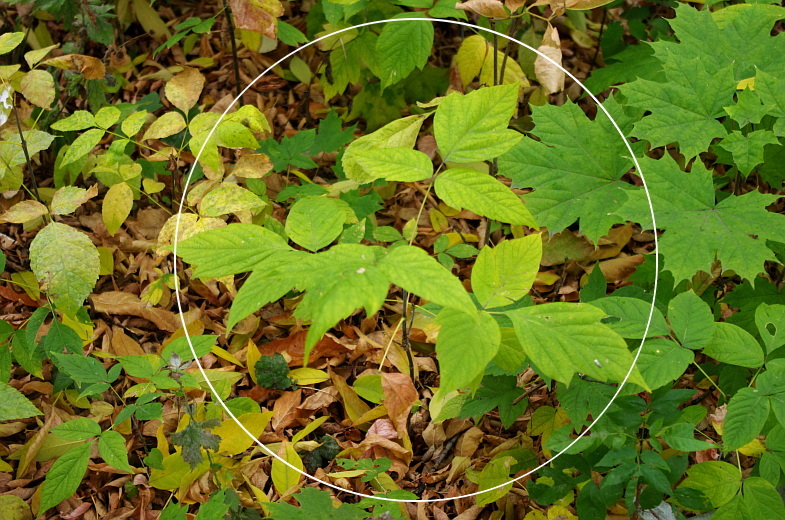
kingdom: Plantae
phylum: Tracheophyta
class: Magnoliopsida
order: Sapindales
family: Sapindaceae
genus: Acer
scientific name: Acer negundo
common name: Ashleaf maple
